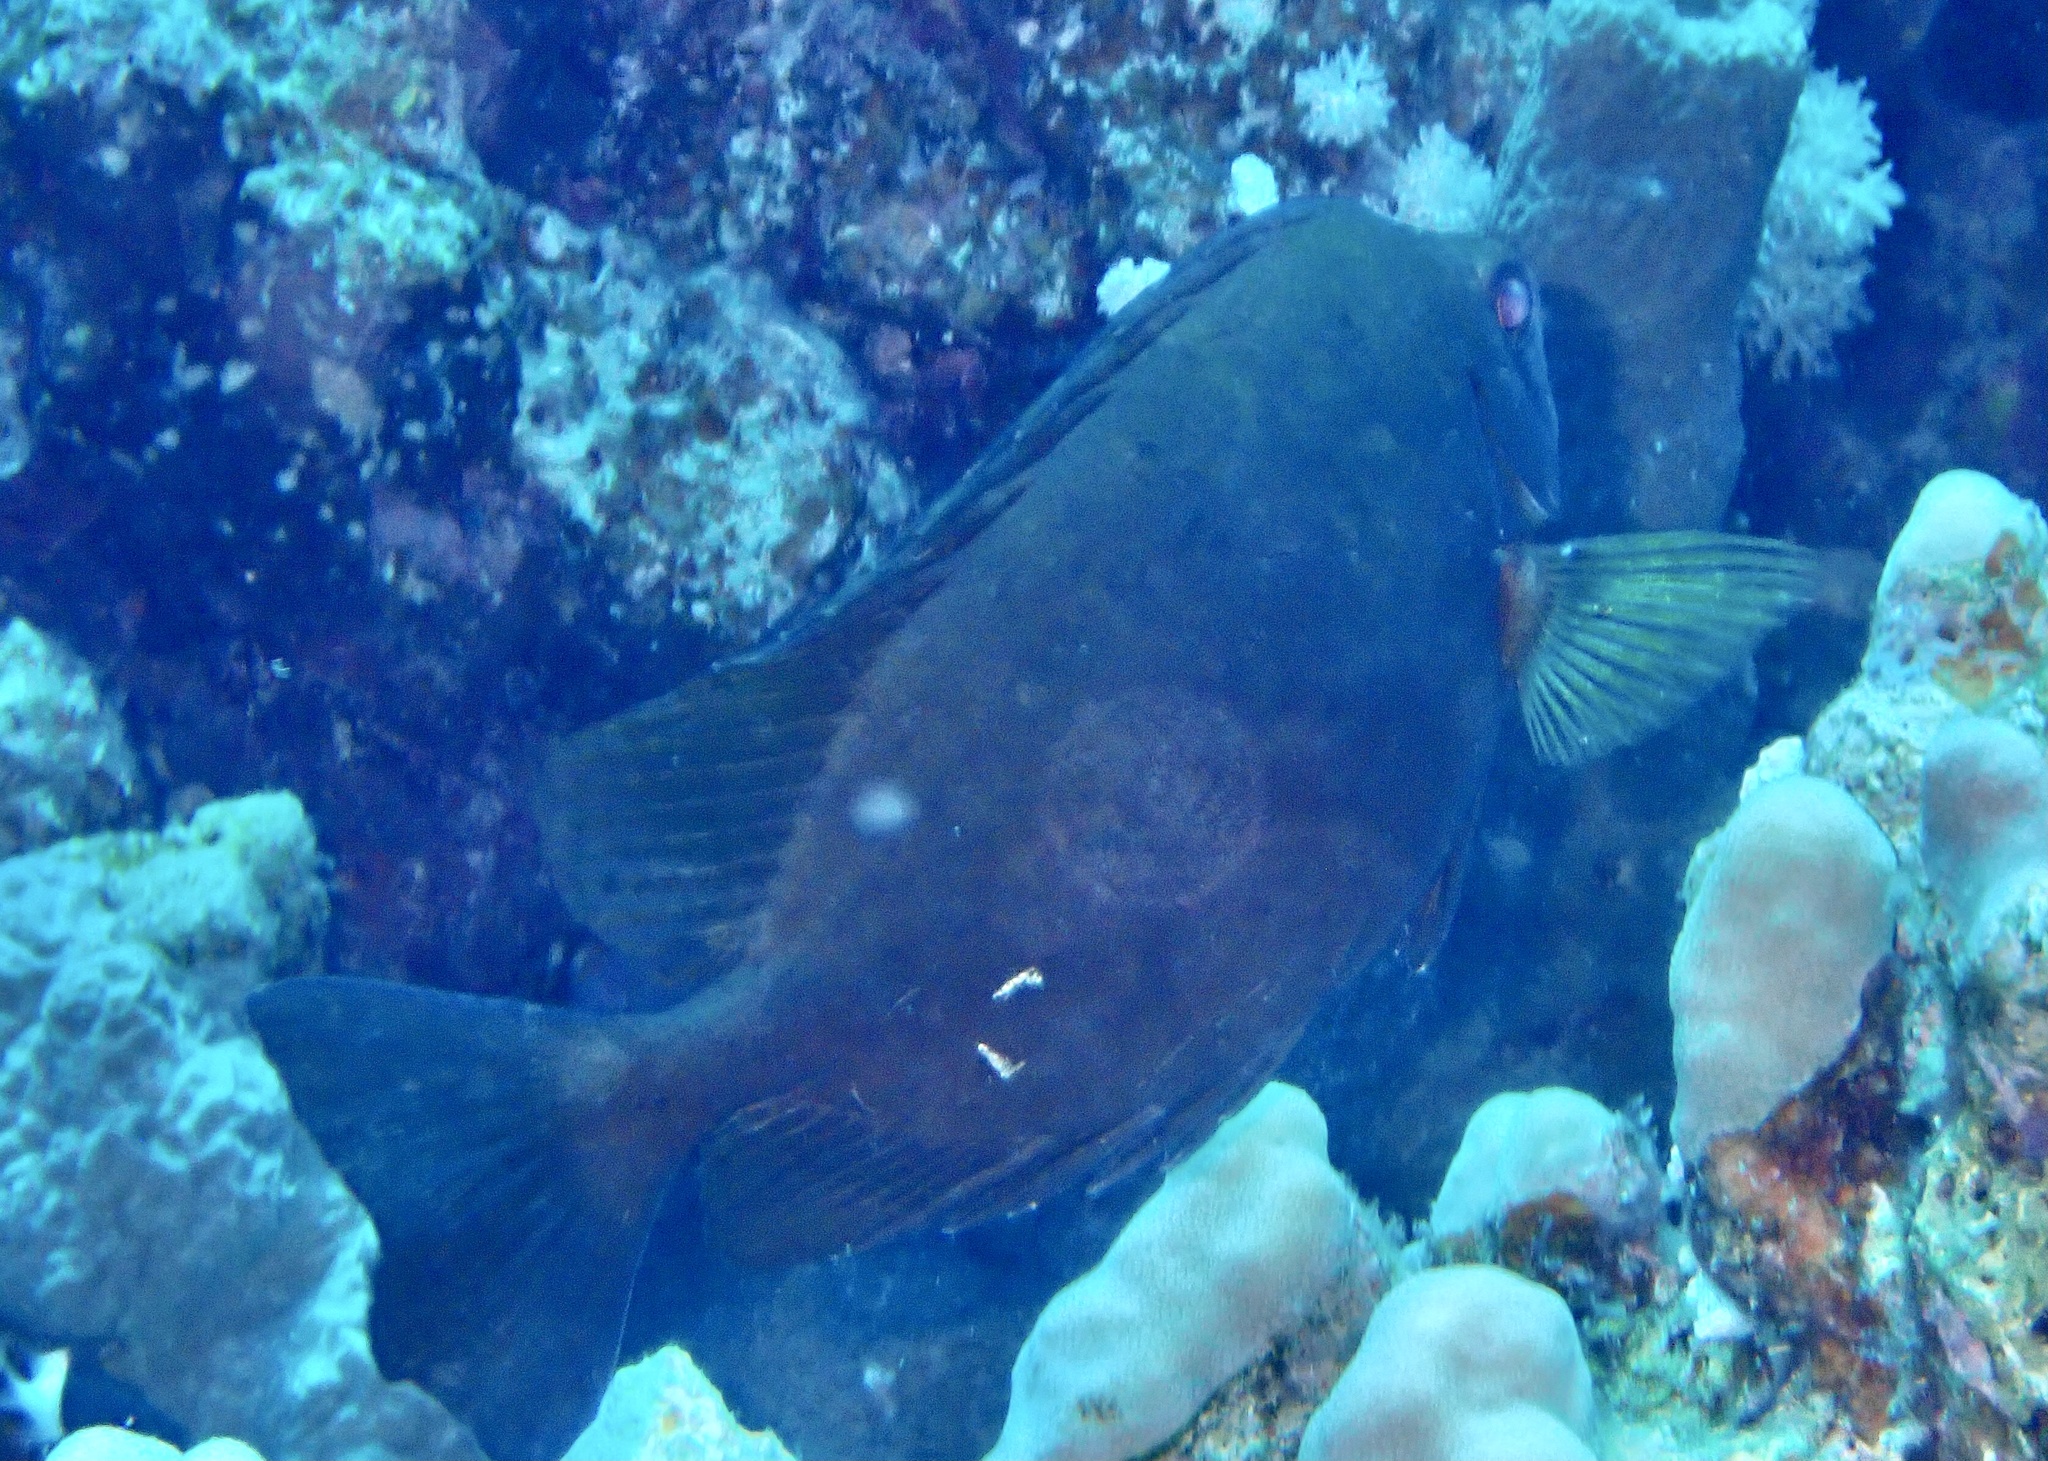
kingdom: Animalia
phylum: Chordata
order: Perciformes
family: Siganidae
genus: Siganus
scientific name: Siganus luridus
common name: Dusky spinefoot
